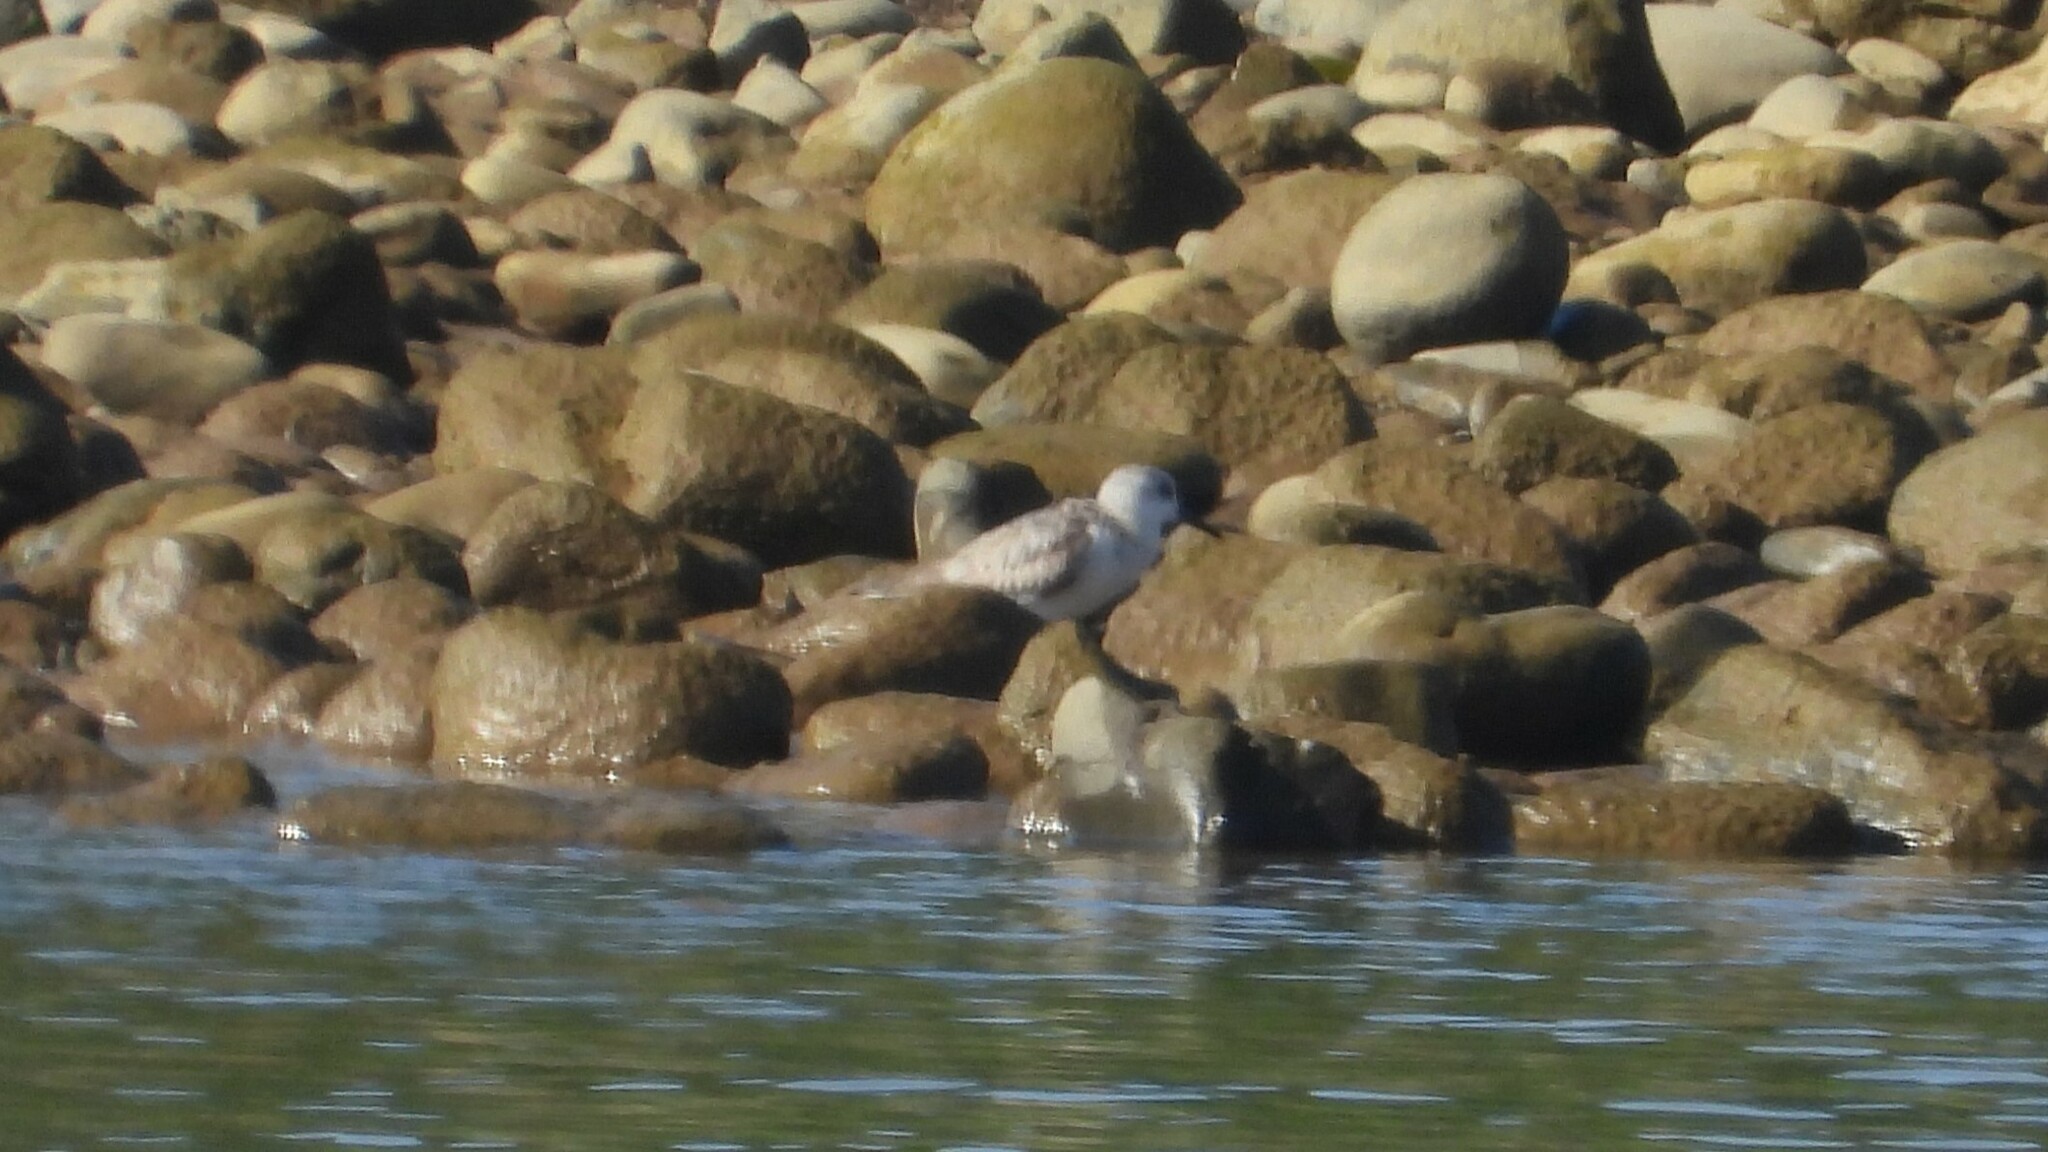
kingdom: Animalia
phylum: Chordata
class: Aves
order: Charadriiformes
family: Scolopacidae
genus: Calidris
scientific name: Calidris alba
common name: Sanderling
